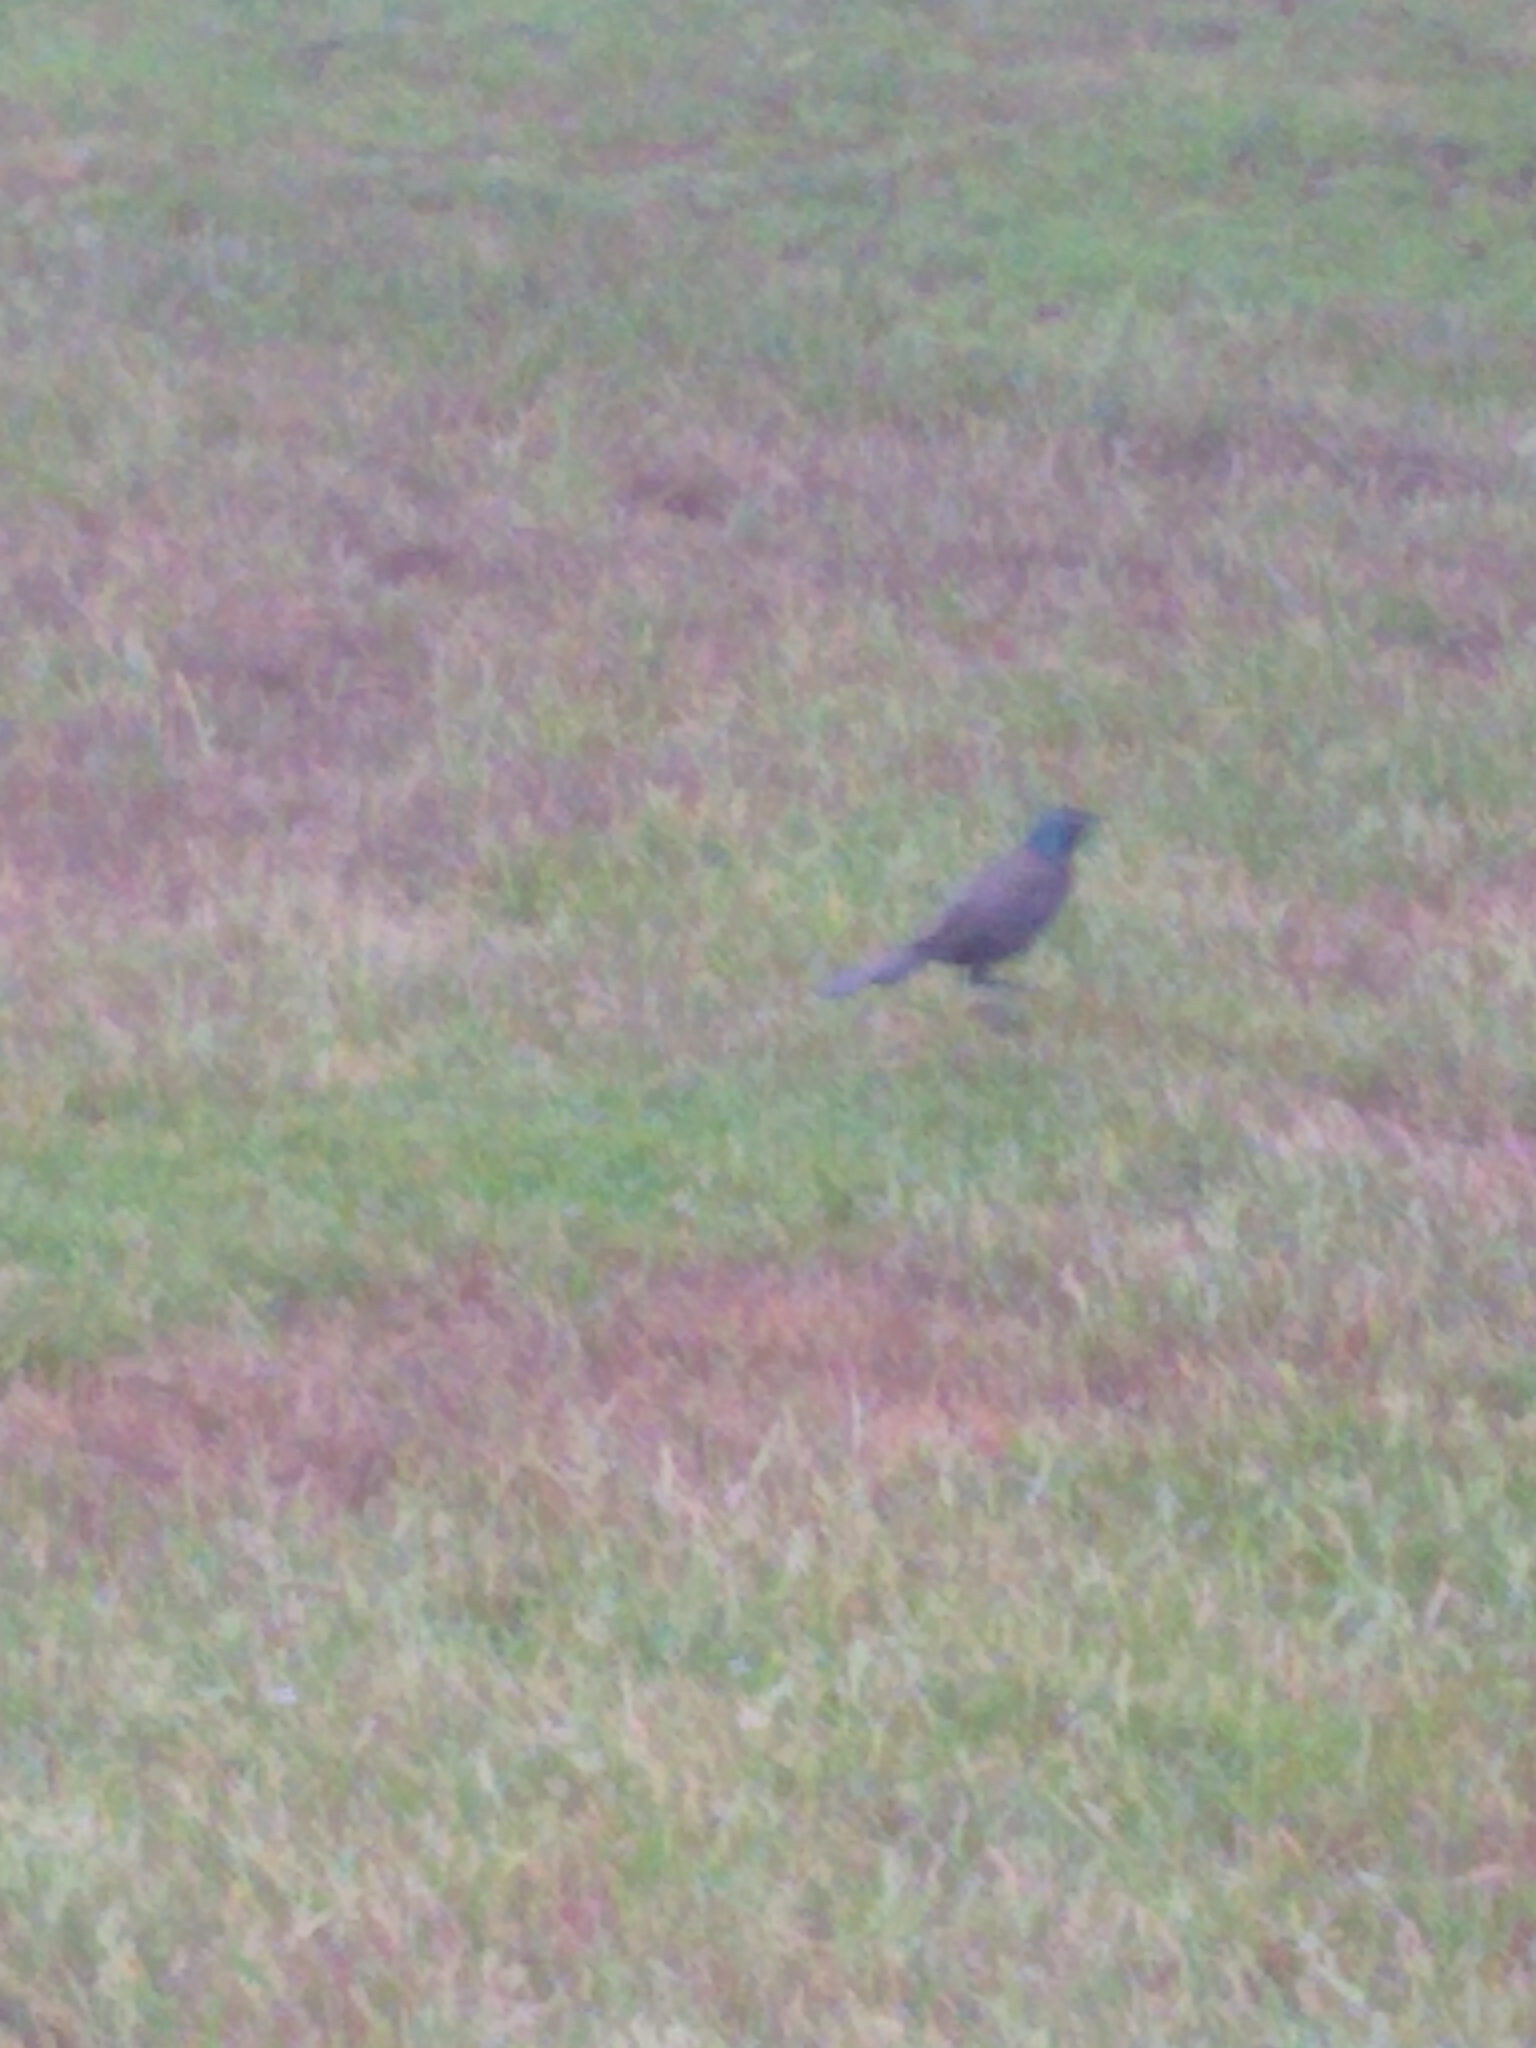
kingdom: Animalia
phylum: Chordata
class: Aves
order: Passeriformes
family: Icteridae
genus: Quiscalus
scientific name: Quiscalus quiscula
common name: Common grackle
